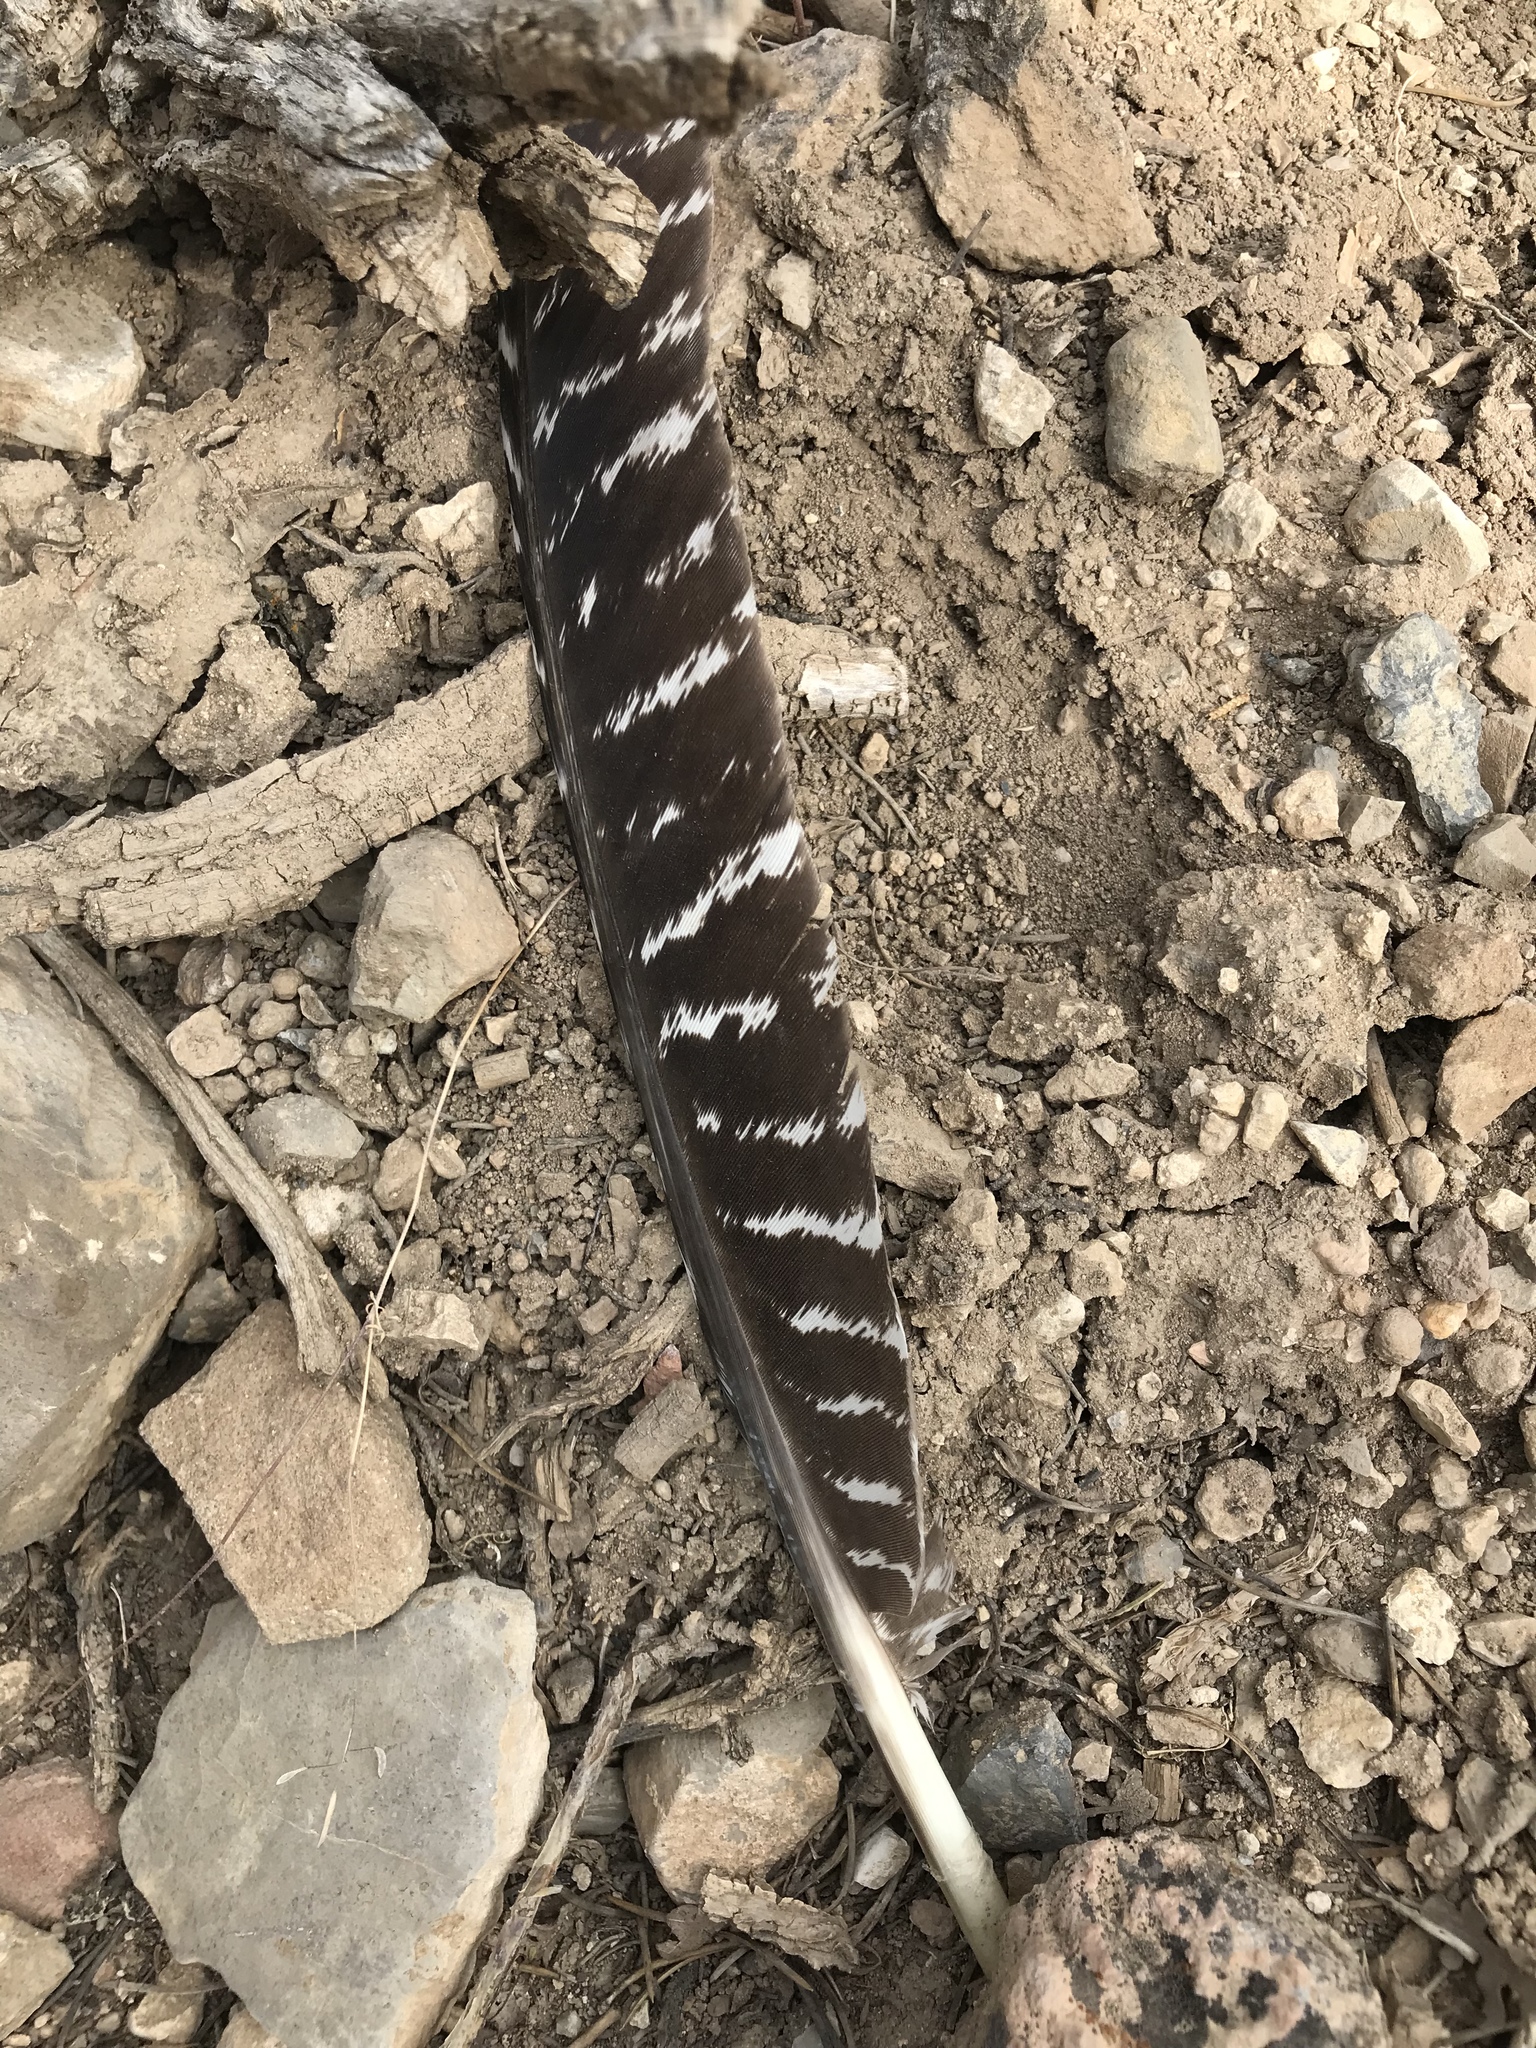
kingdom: Animalia
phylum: Chordata
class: Aves
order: Galliformes
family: Phasianidae
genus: Meleagris
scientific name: Meleagris gallopavo
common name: Wild turkey
